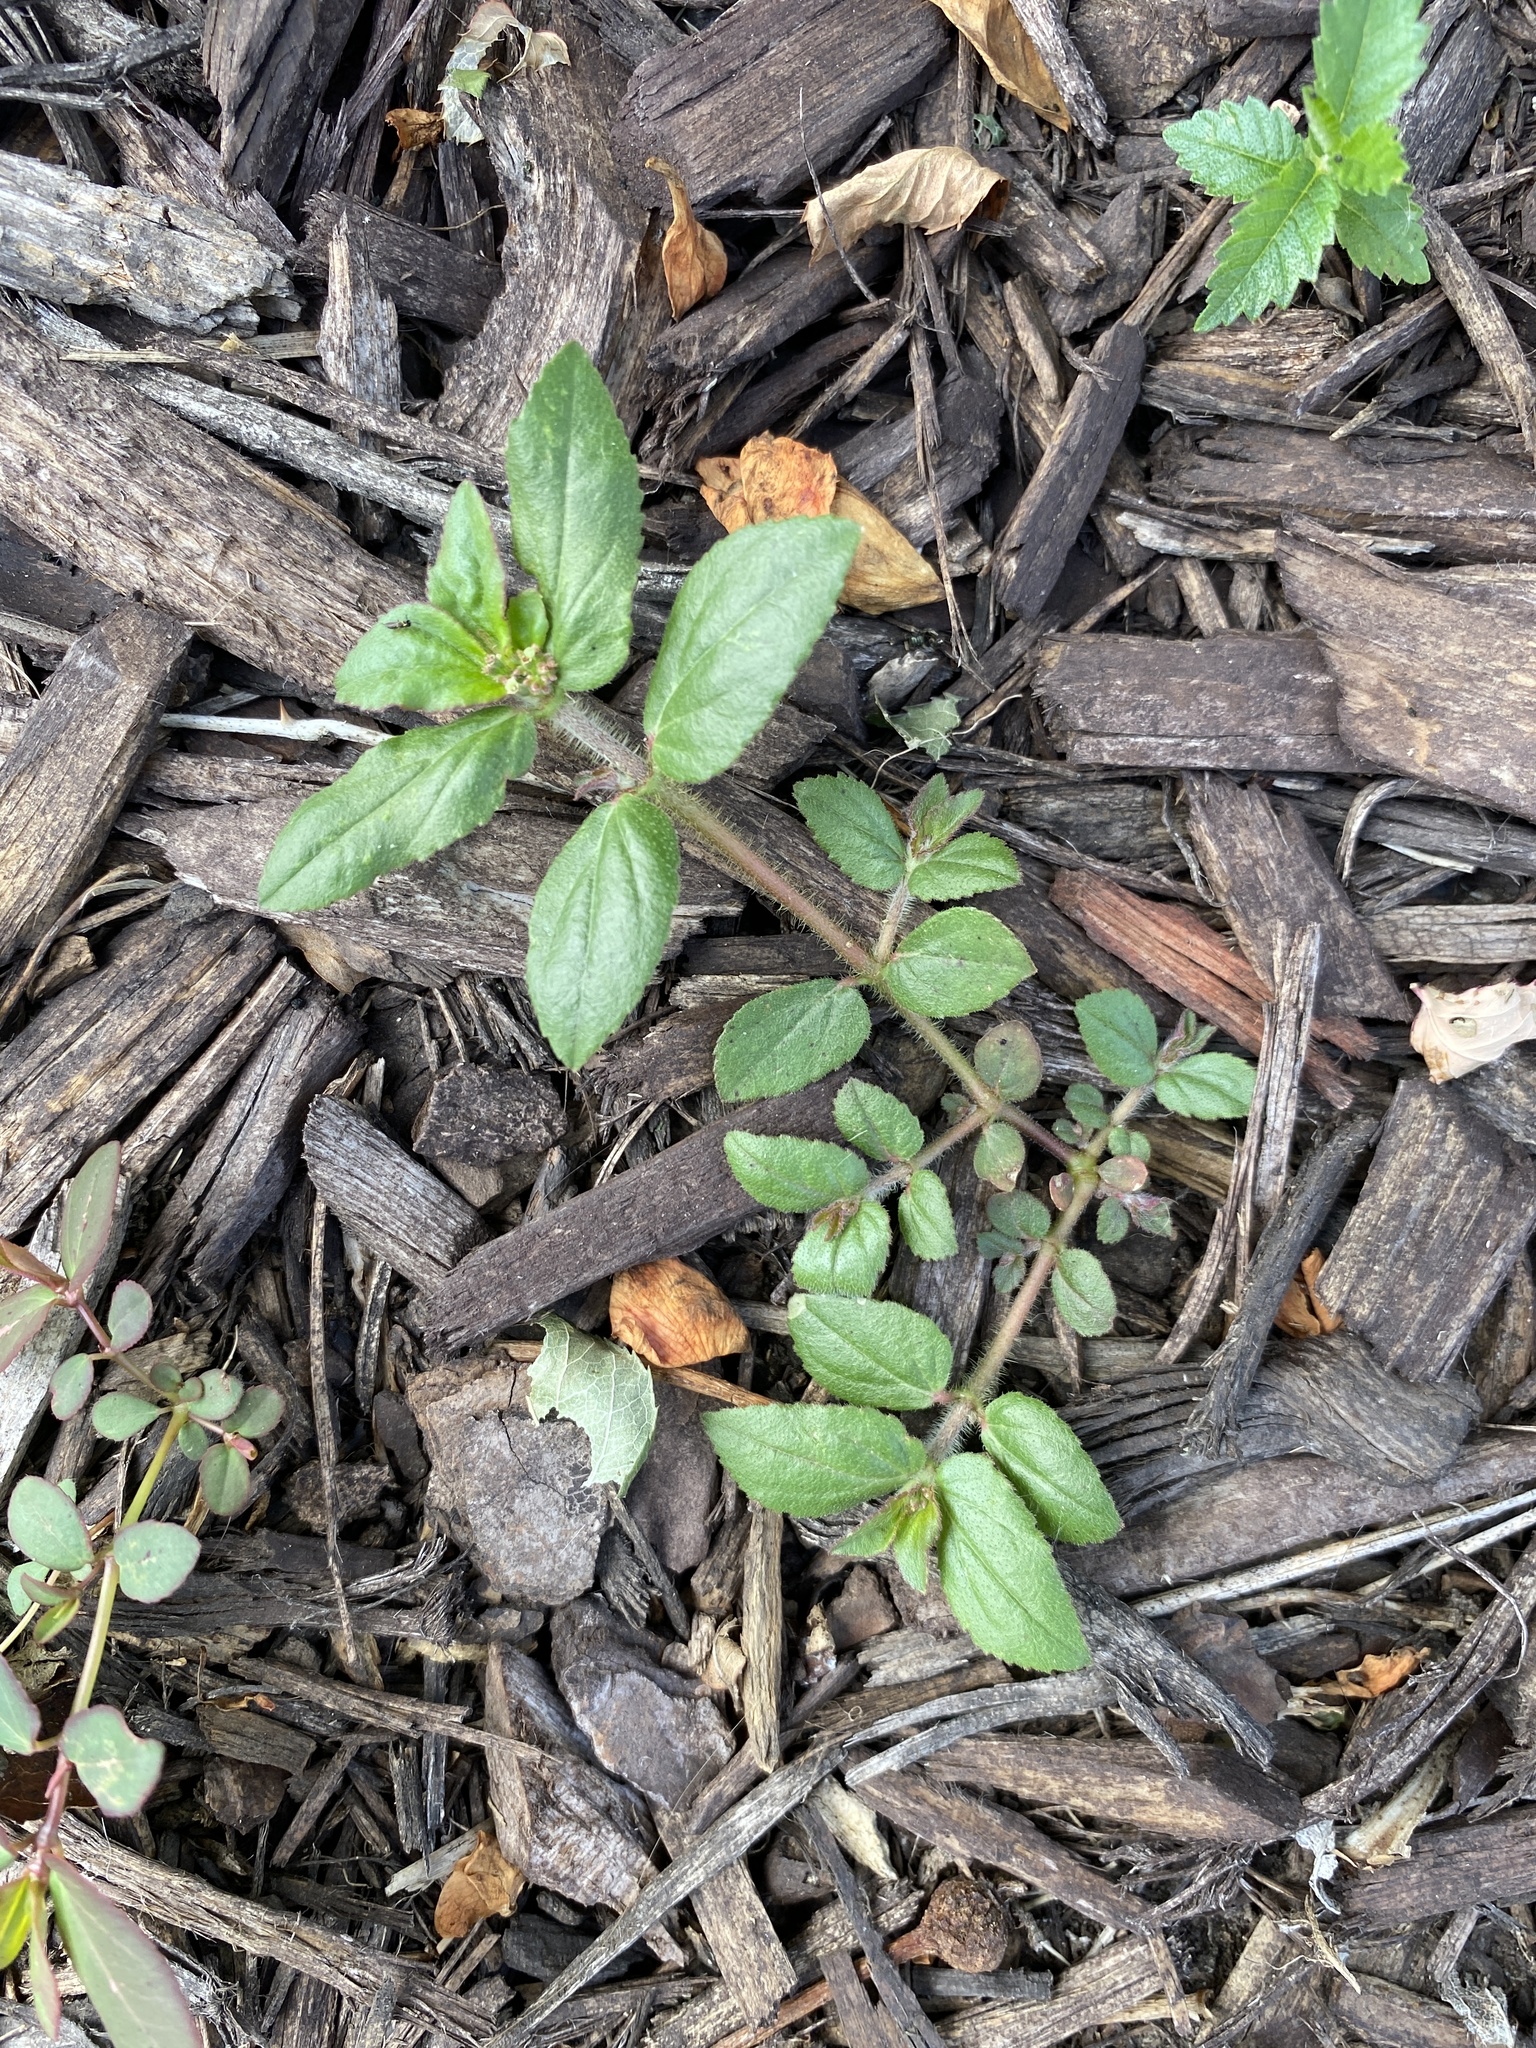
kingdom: Plantae
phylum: Tracheophyta
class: Magnoliopsida
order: Malpighiales
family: Euphorbiaceae
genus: Euphorbia
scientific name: Euphorbia hirta
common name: Pillpod sandmat
